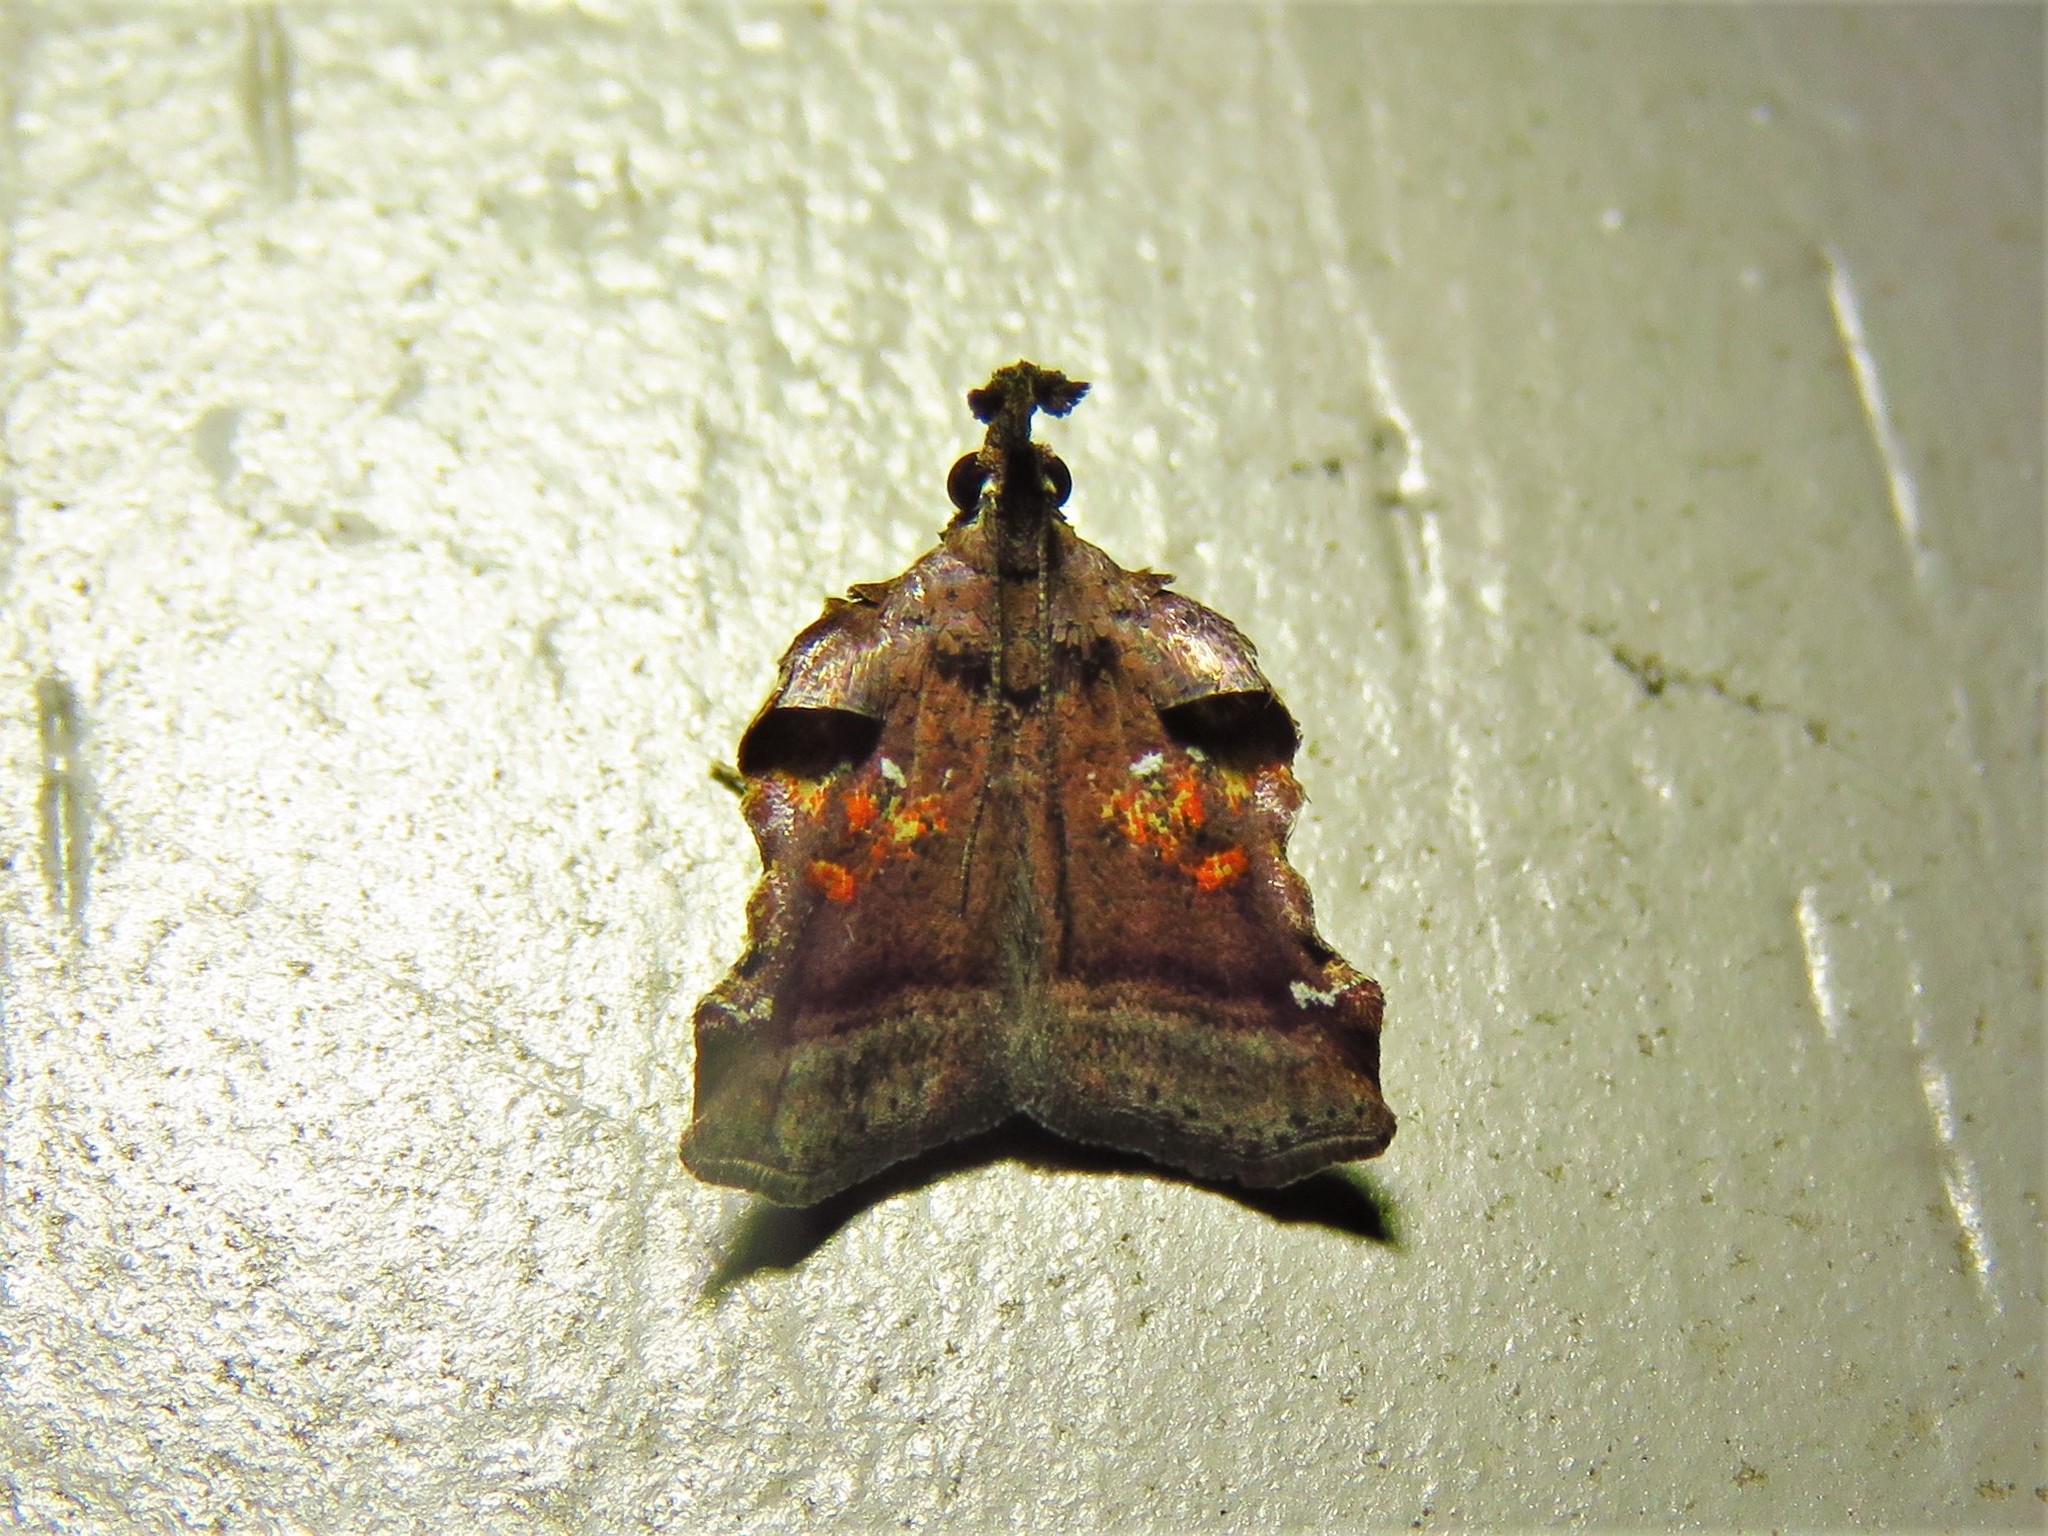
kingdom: Animalia
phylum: Arthropoda
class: Insecta
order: Lepidoptera
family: Pyralidae
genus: Clydonopteron
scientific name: Clydonopteron sacculana
